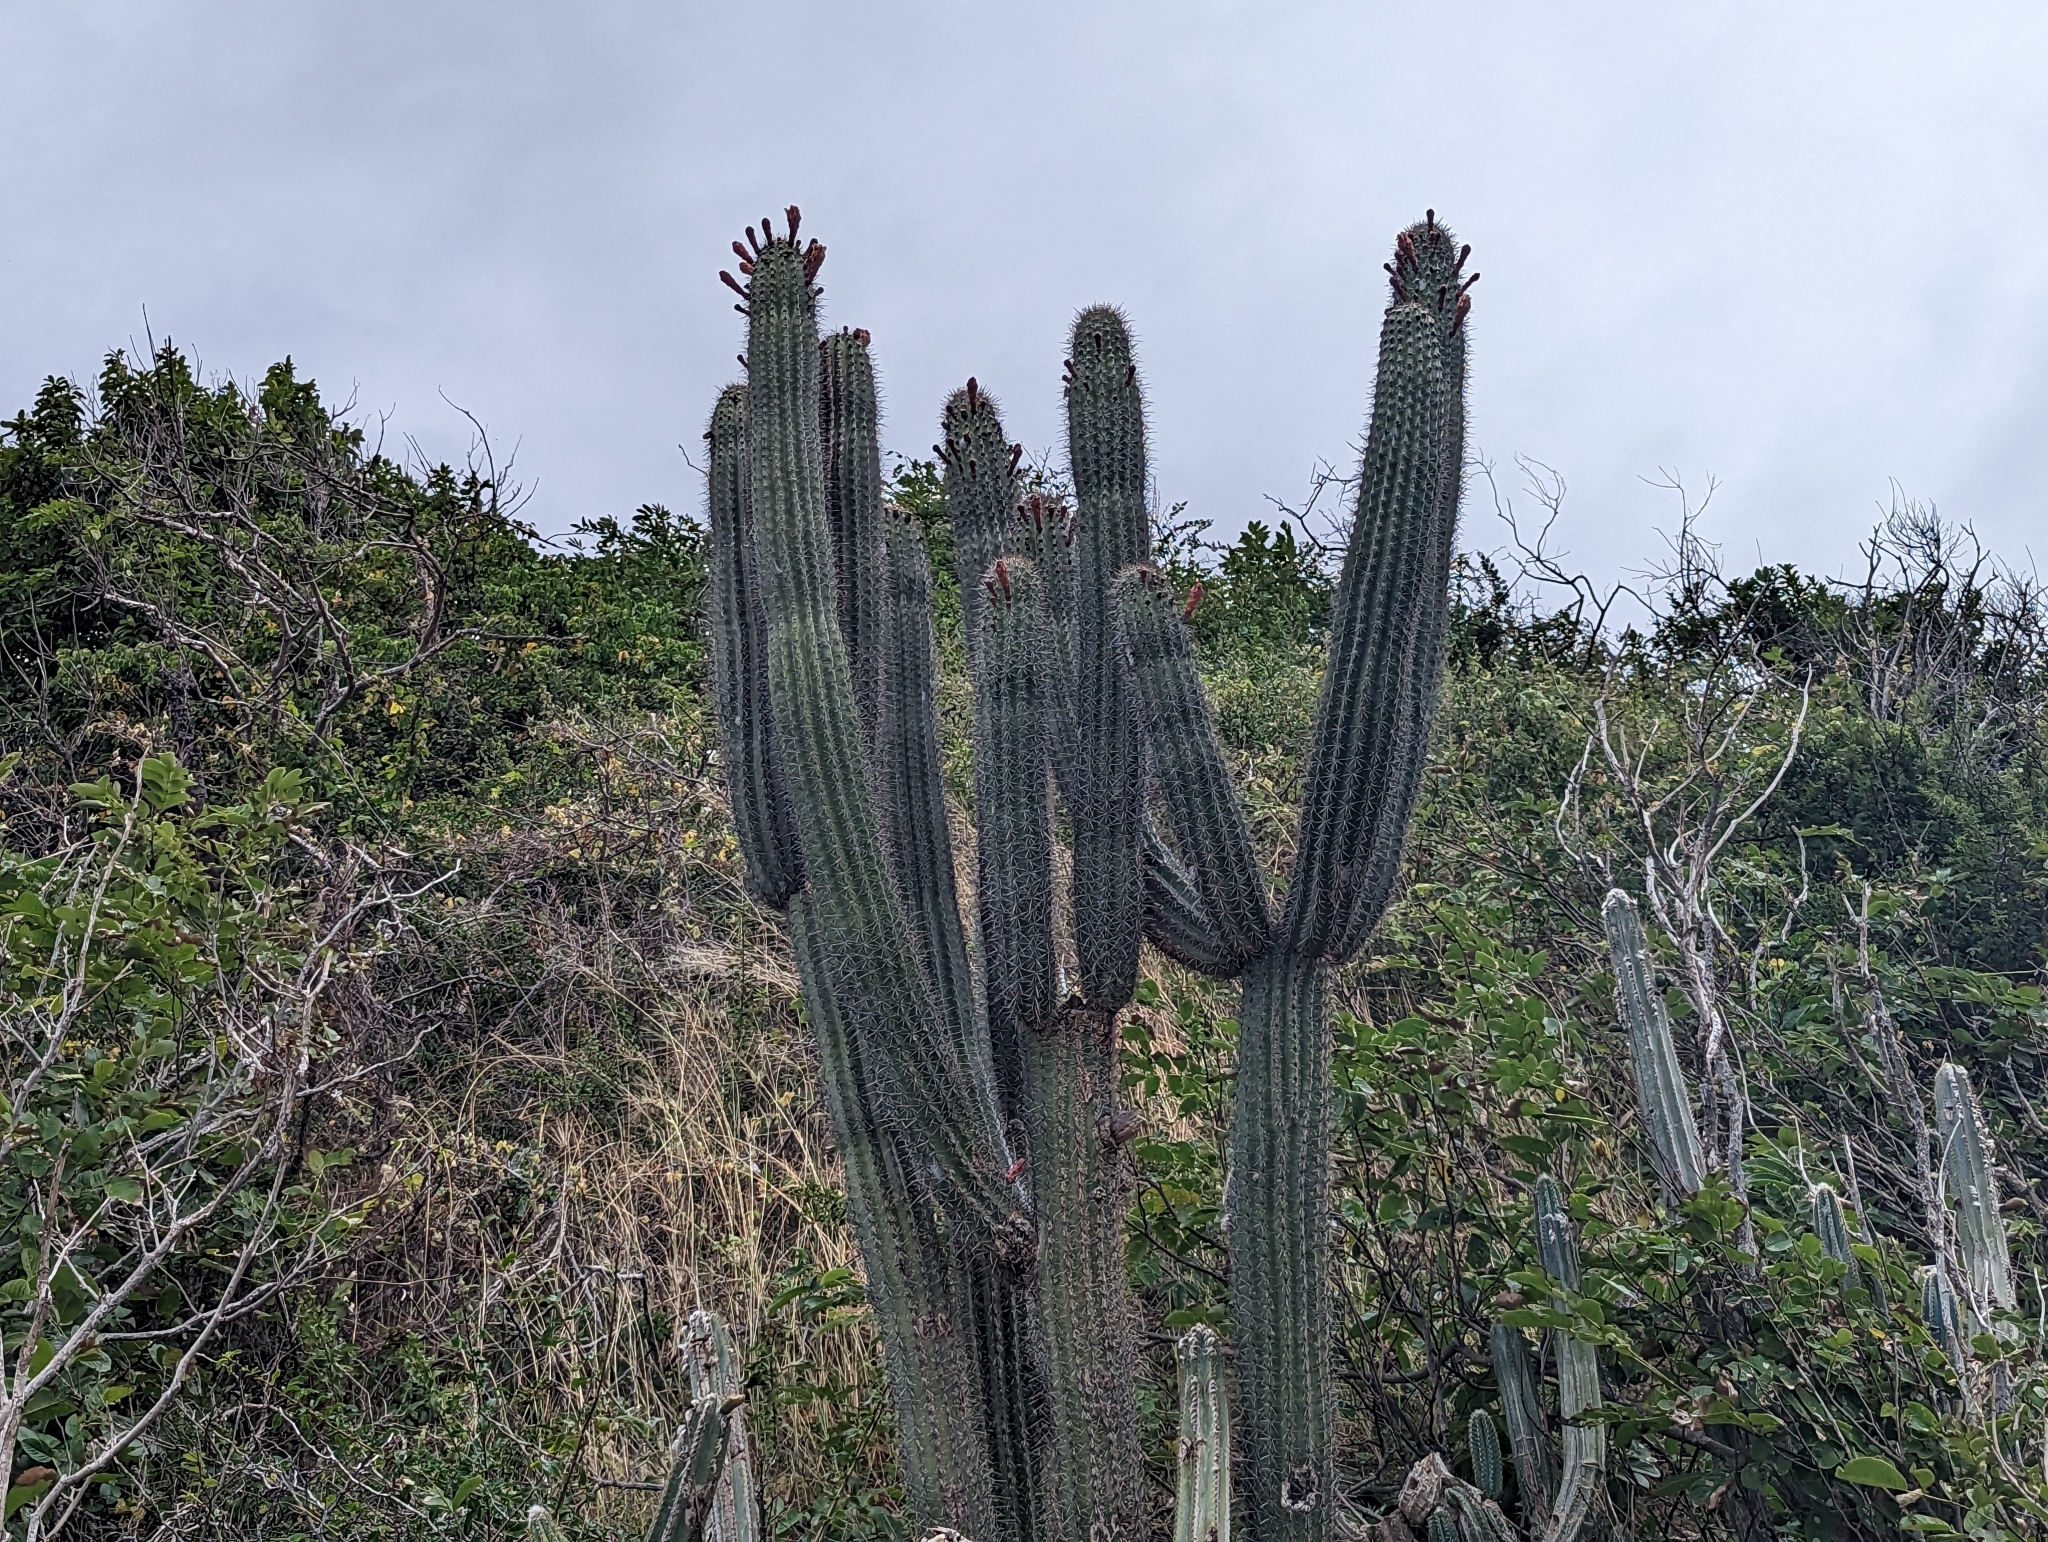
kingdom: Plantae
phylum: Tracheophyta
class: Magnoliopsida
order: Caryophyllales
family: Cactaceae
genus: Stenocereus
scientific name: Stenocereus heptagonus
